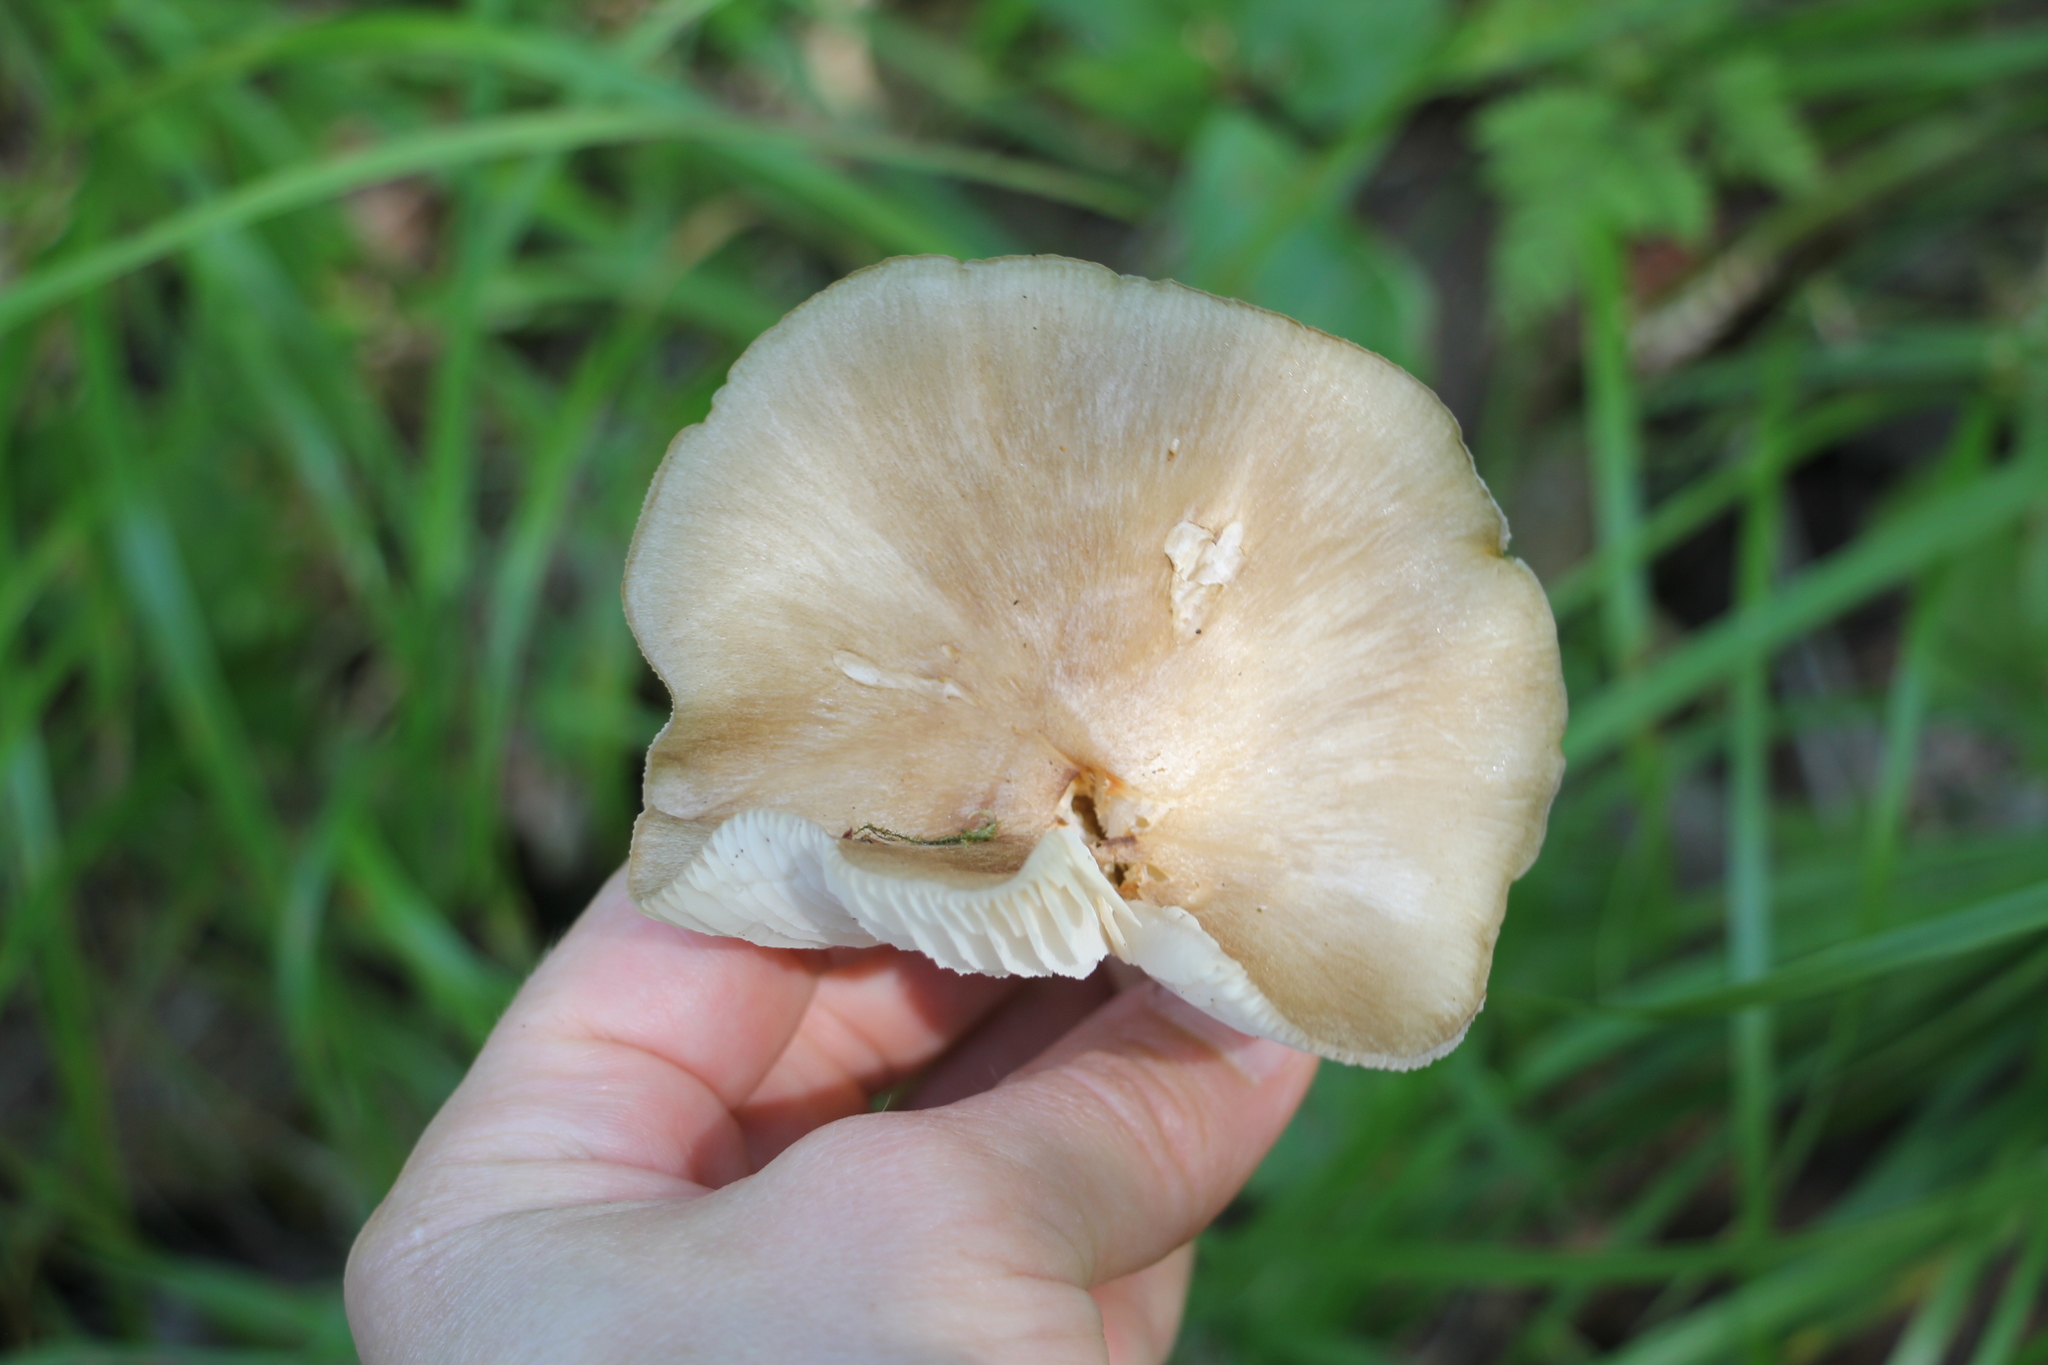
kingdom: Fungi
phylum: Basidiomycota
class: Agaricomycetes
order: Agaricales
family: Tricholomataceae
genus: Megacollybia
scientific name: Megacollybia platyphylla
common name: Whitelaced shank
